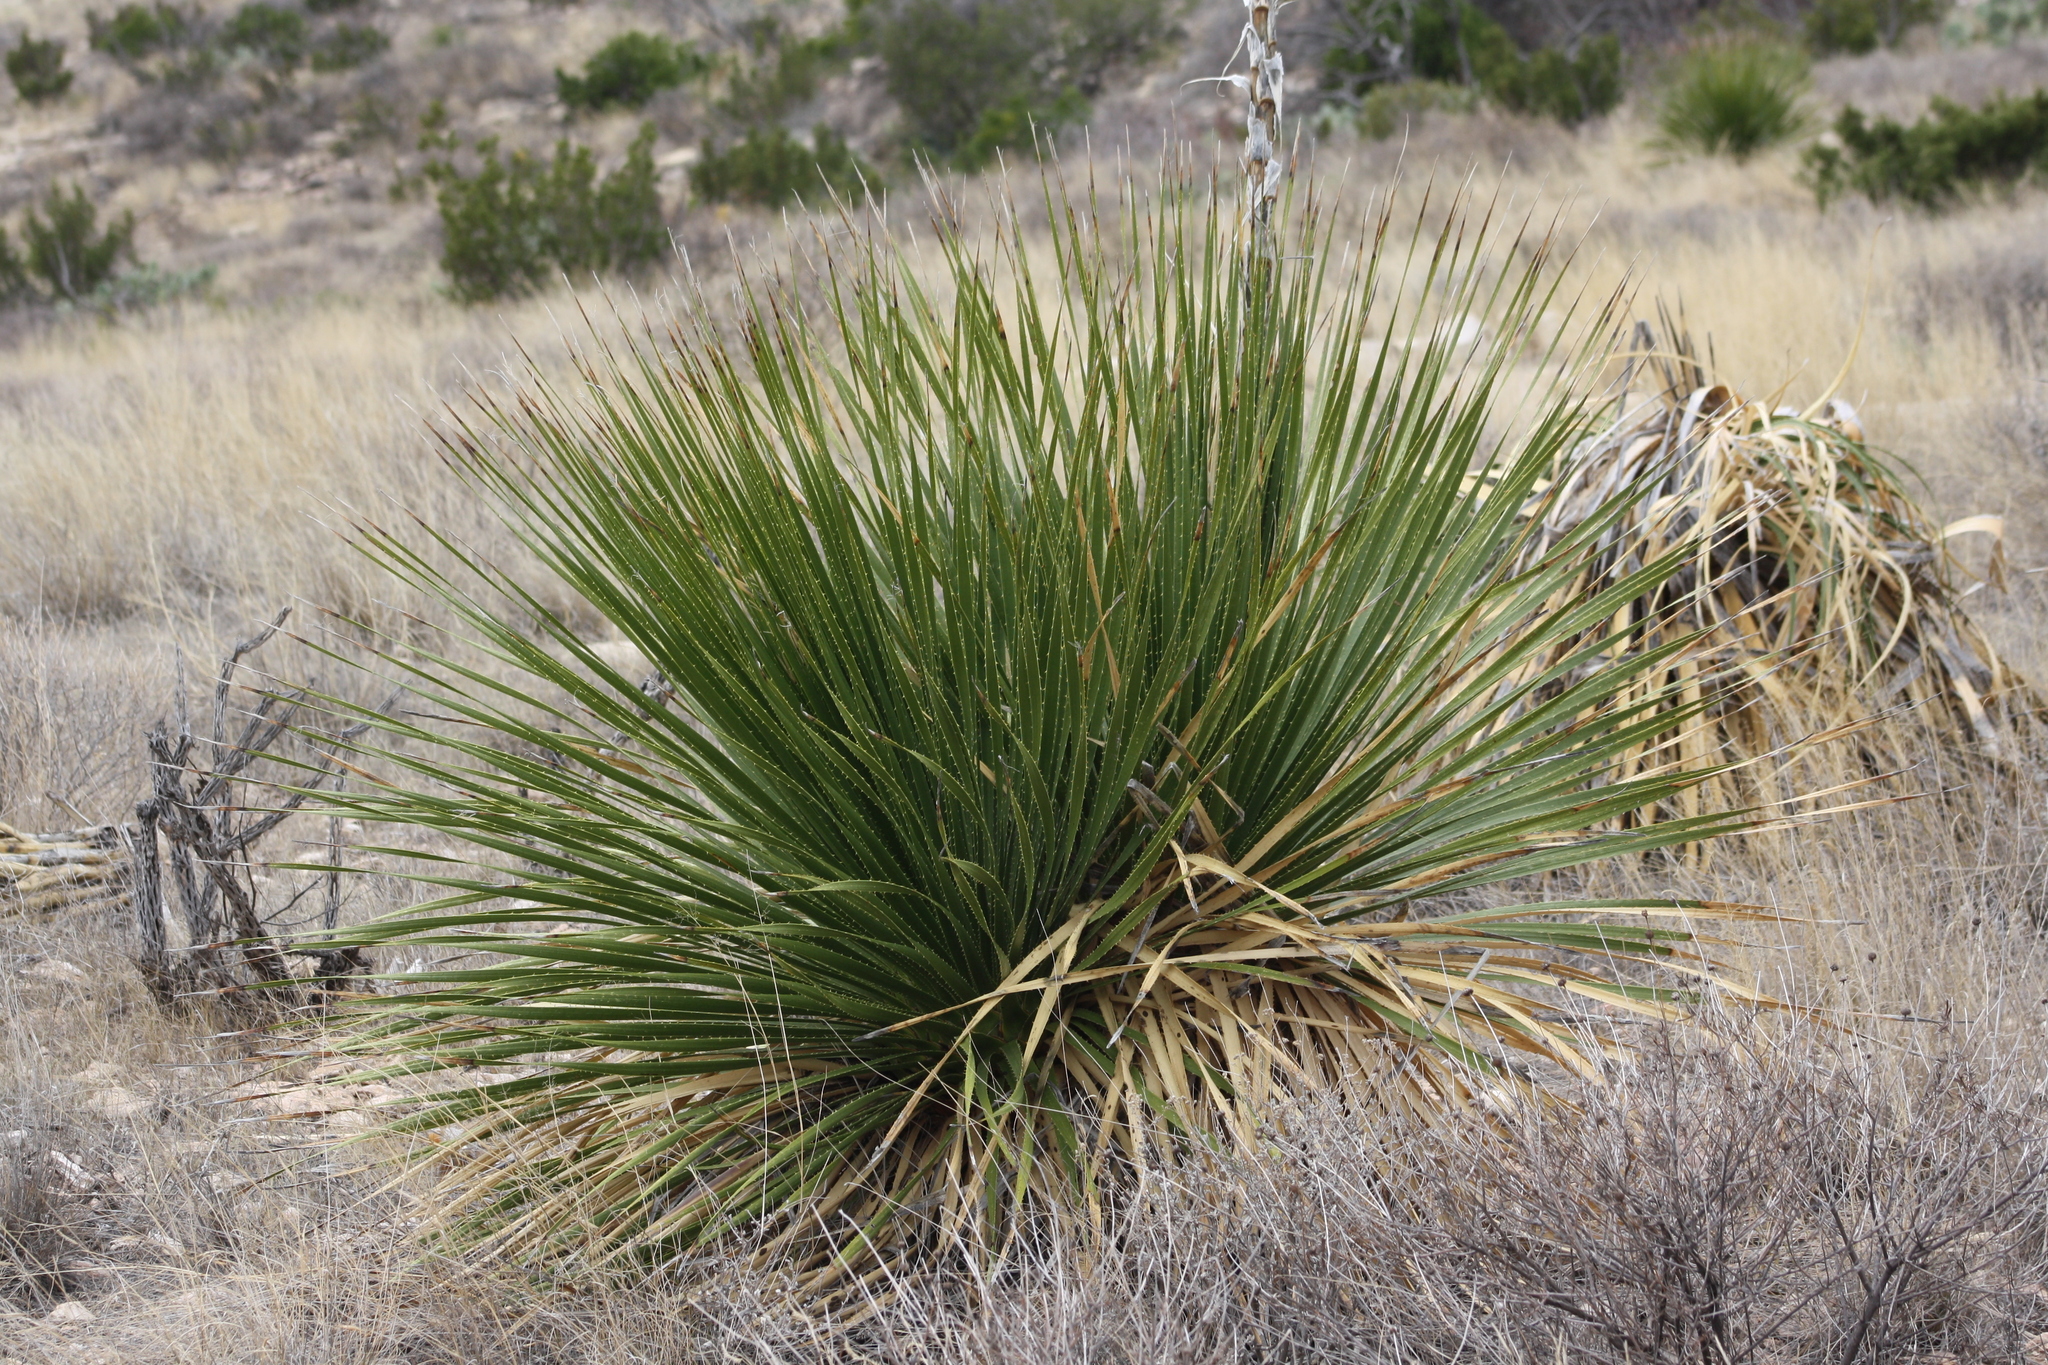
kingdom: Plantae
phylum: Tracheophyta
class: Liliopsida
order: Asparagales
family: Asparagaceae
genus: Dasylirion
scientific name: Dasylirion leiophyllum
